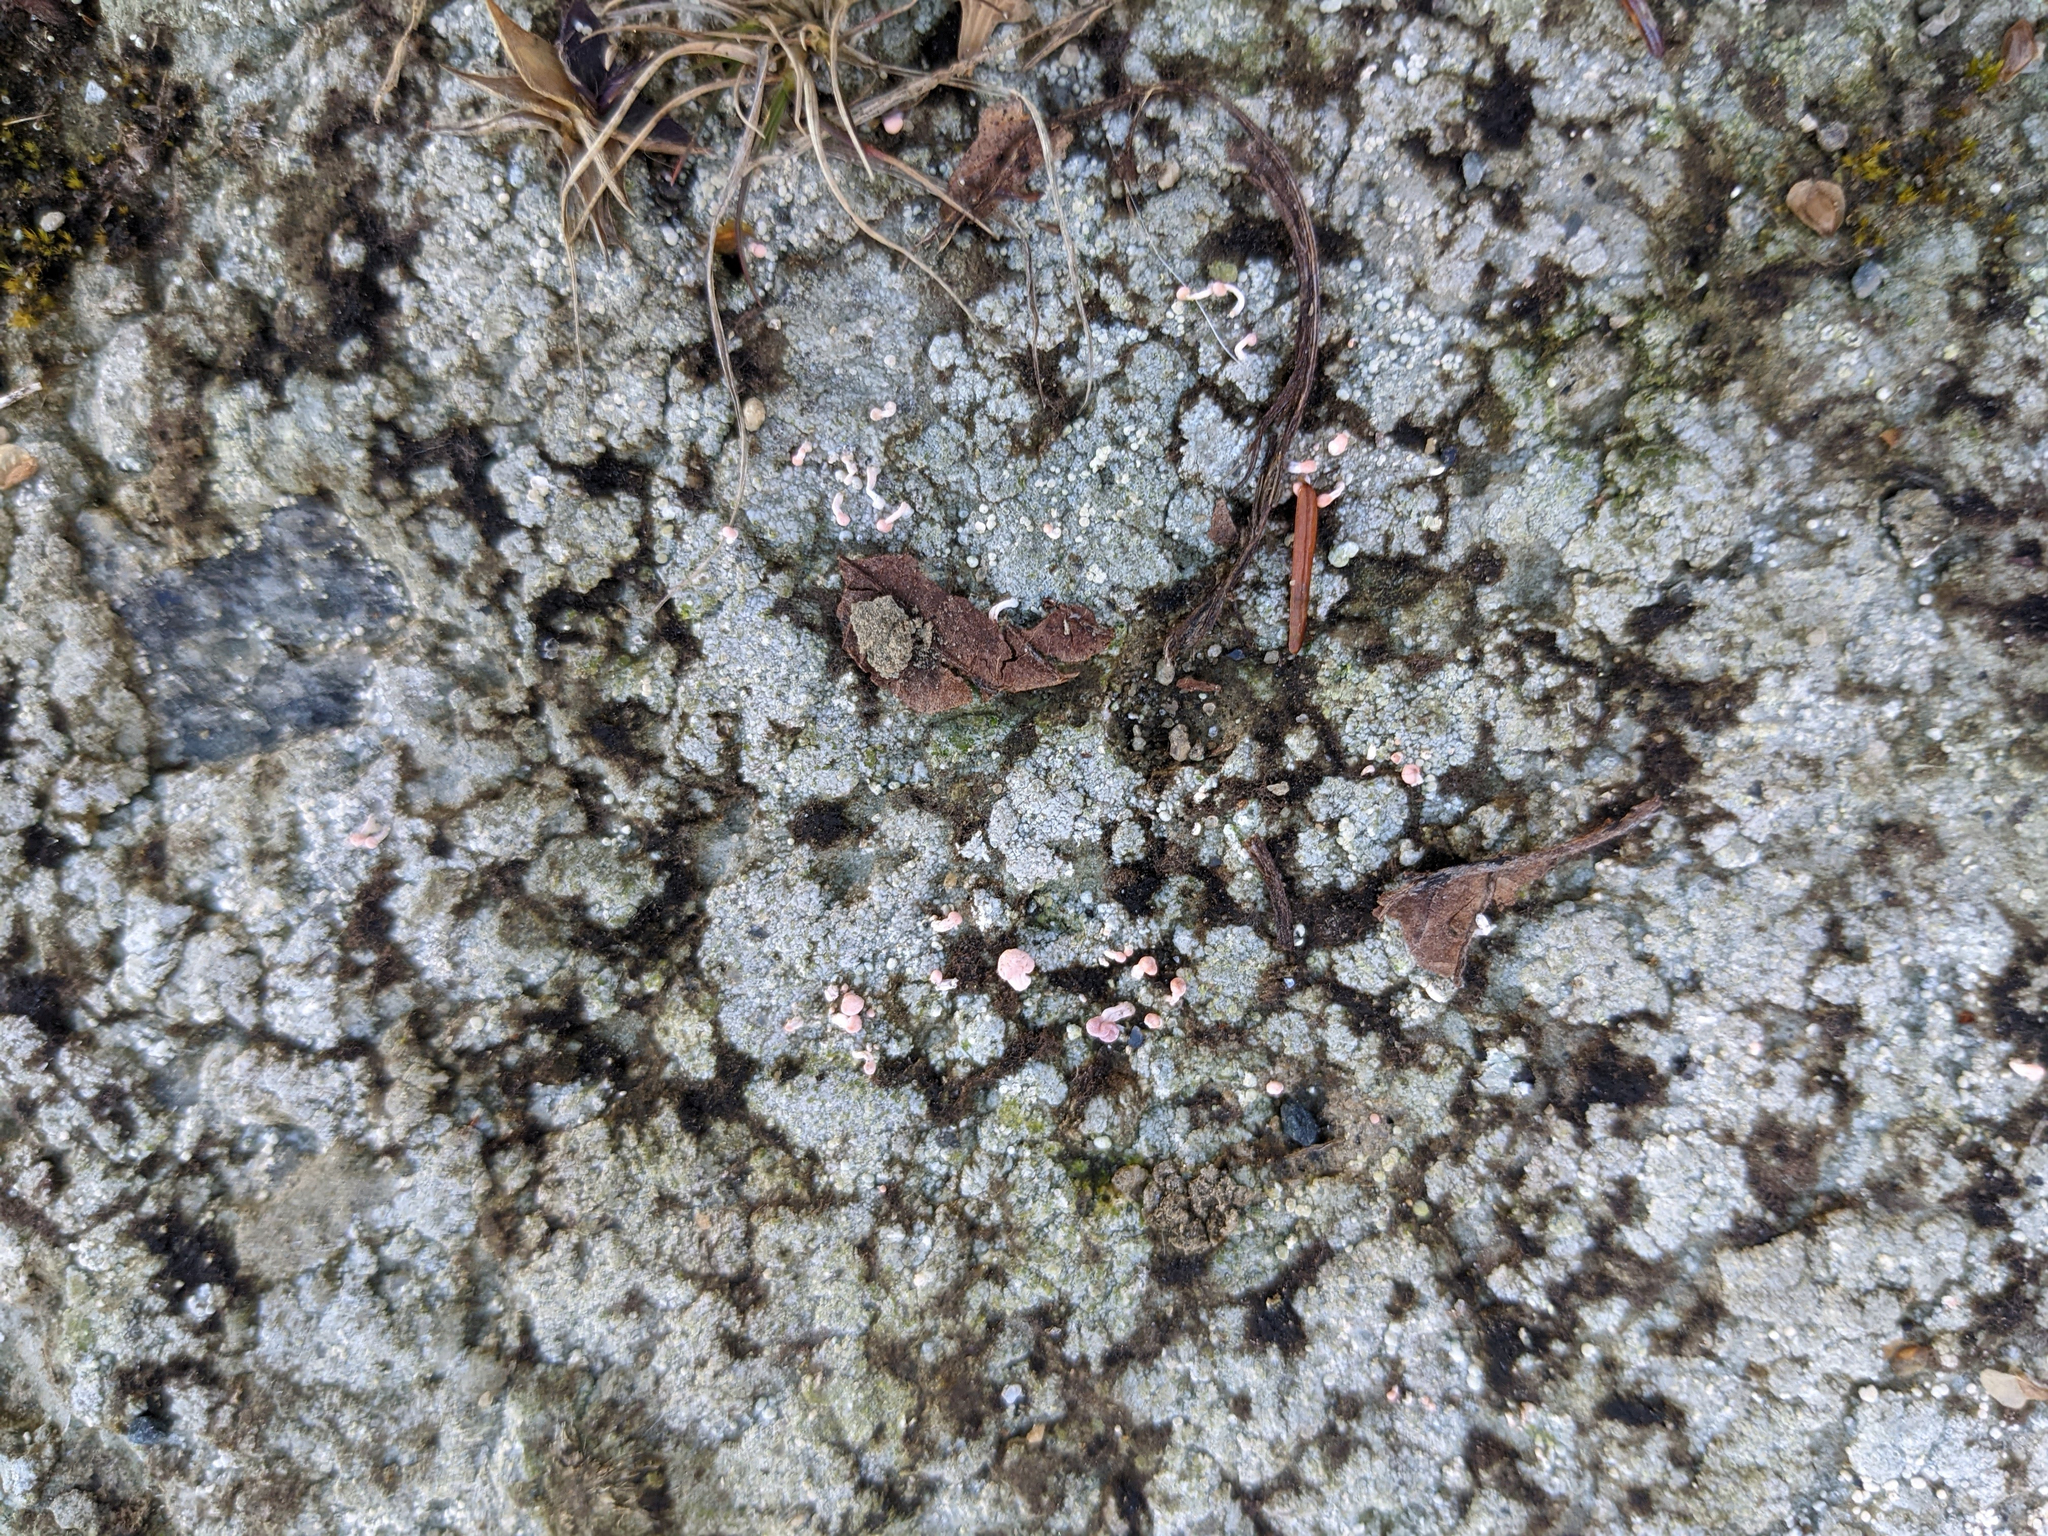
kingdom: Fungi
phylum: Ascomycota
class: Lecanoromycetes
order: Pertusariales
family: Icmadophilaceae
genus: Dibaeis
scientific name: Dibaeis baeomyces
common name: Pink earth lichen
